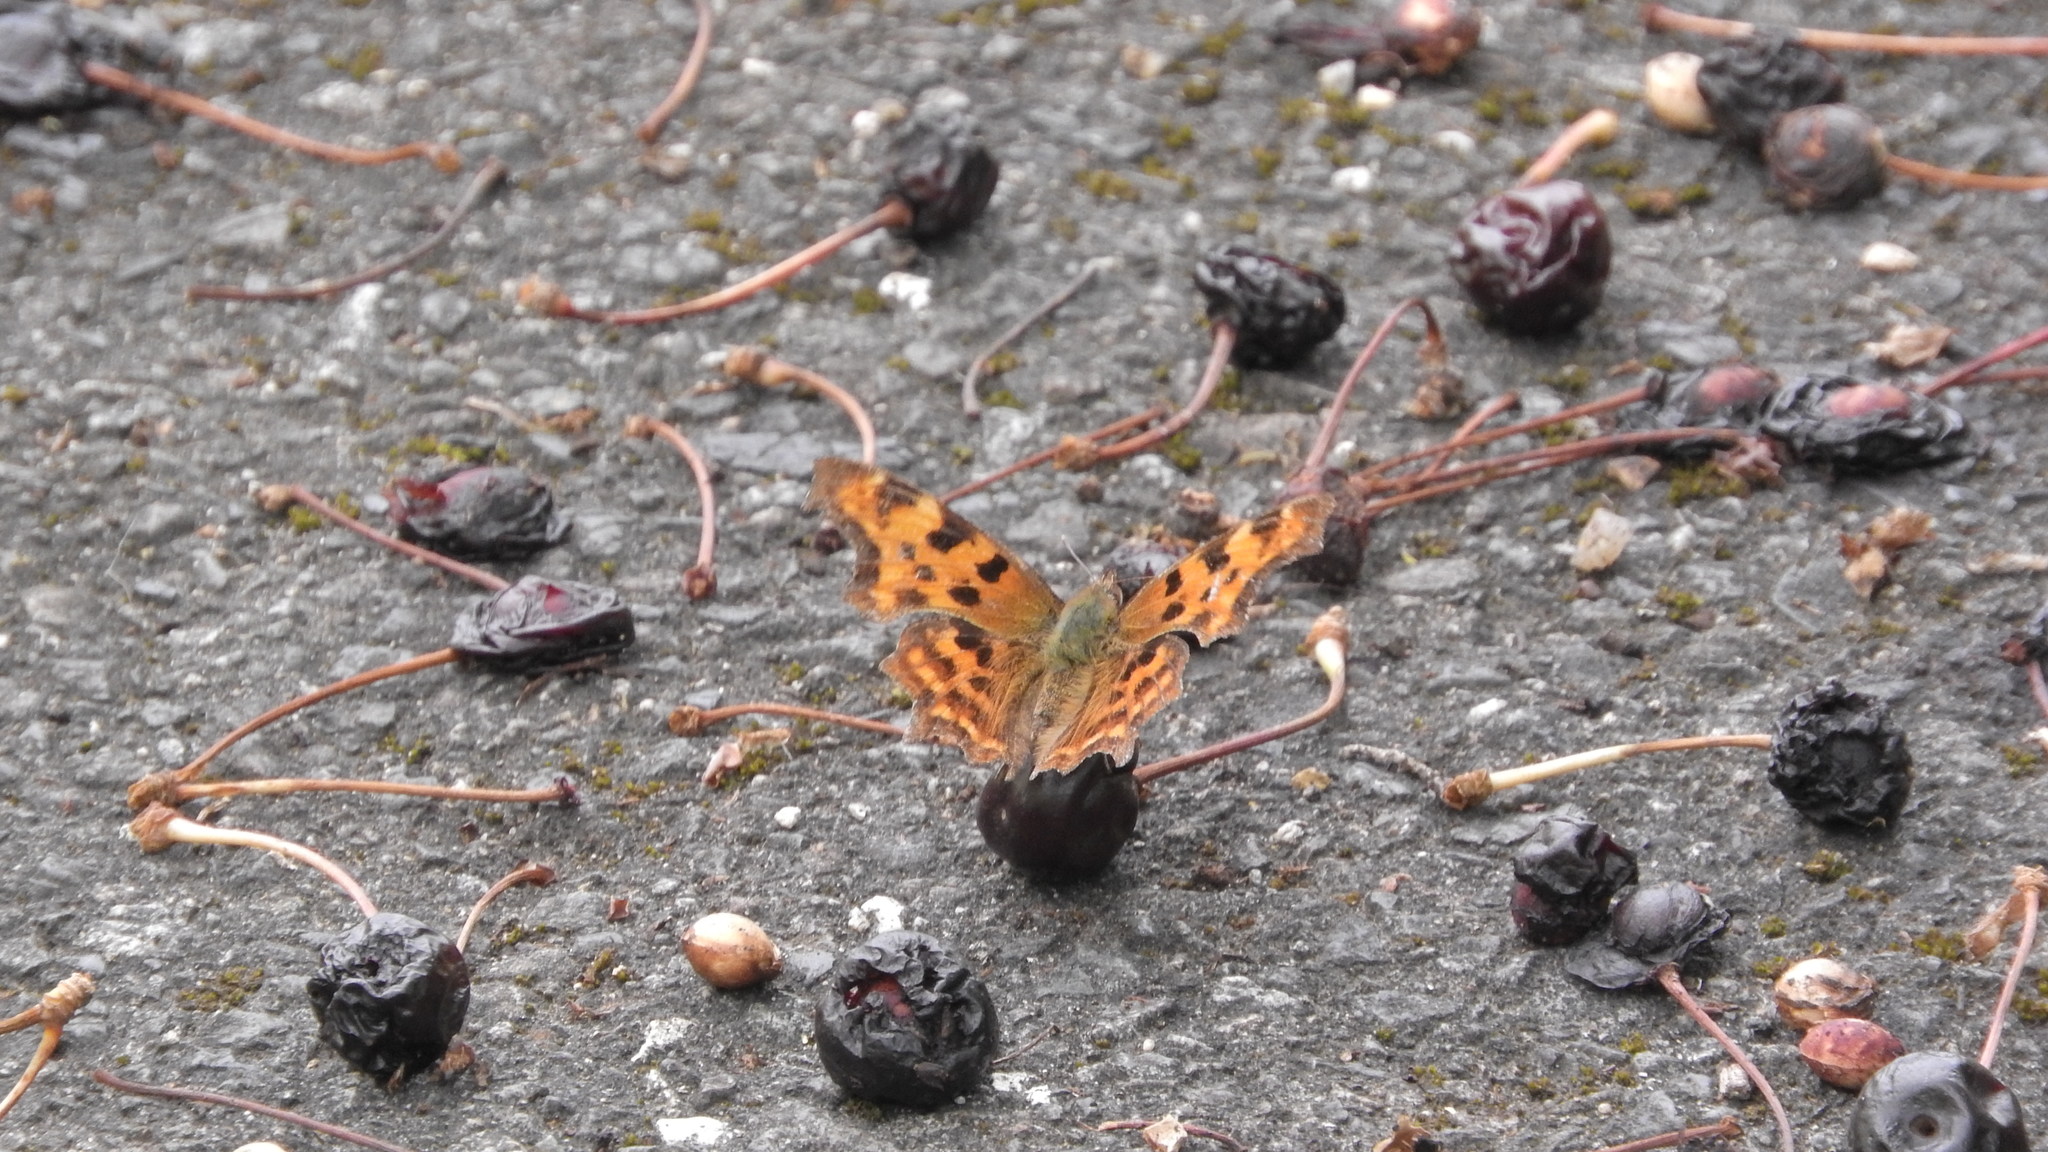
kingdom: Animalia
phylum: Arthropoda
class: Insecta
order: Lepidoptera
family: Nymphalidae
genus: Polygonia
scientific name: Polygonia c-album
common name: Comma
